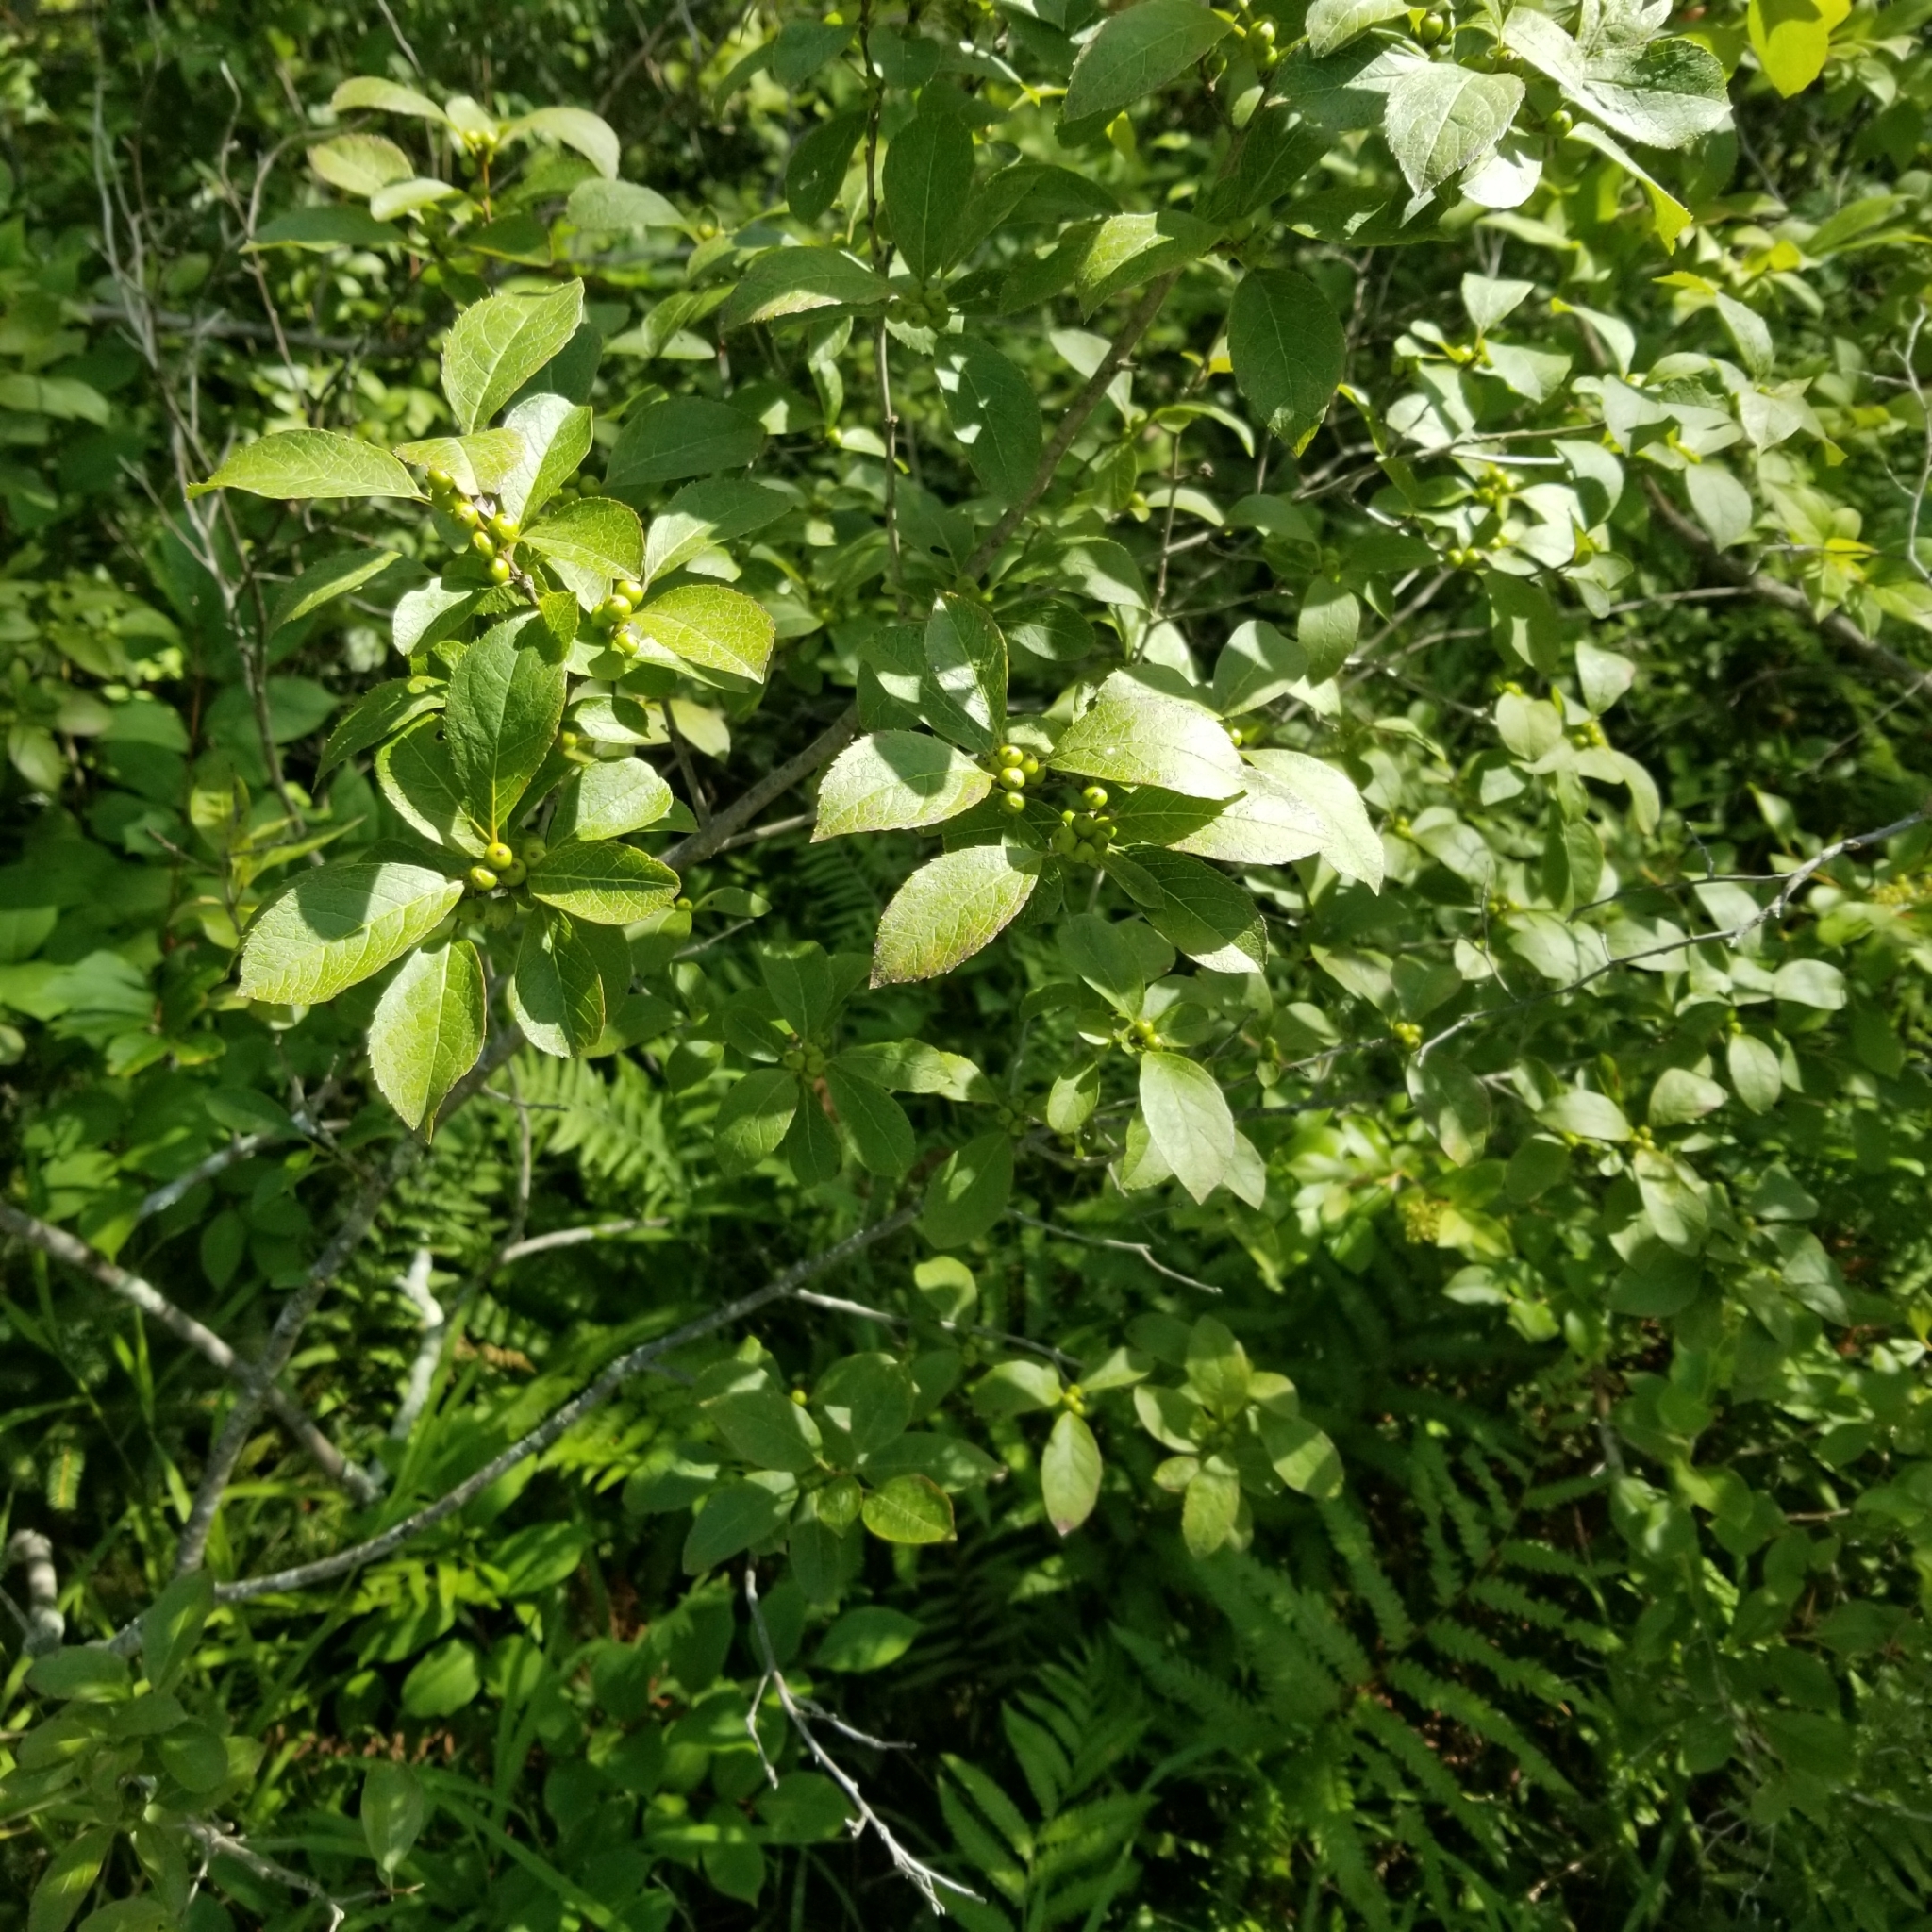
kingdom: Plantae
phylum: Tracheophyta
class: Magnoliopsida
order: Aquifoliales
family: Aquifoliaceae
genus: Ilex
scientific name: Ilex verticillata
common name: Virginia winterberry
